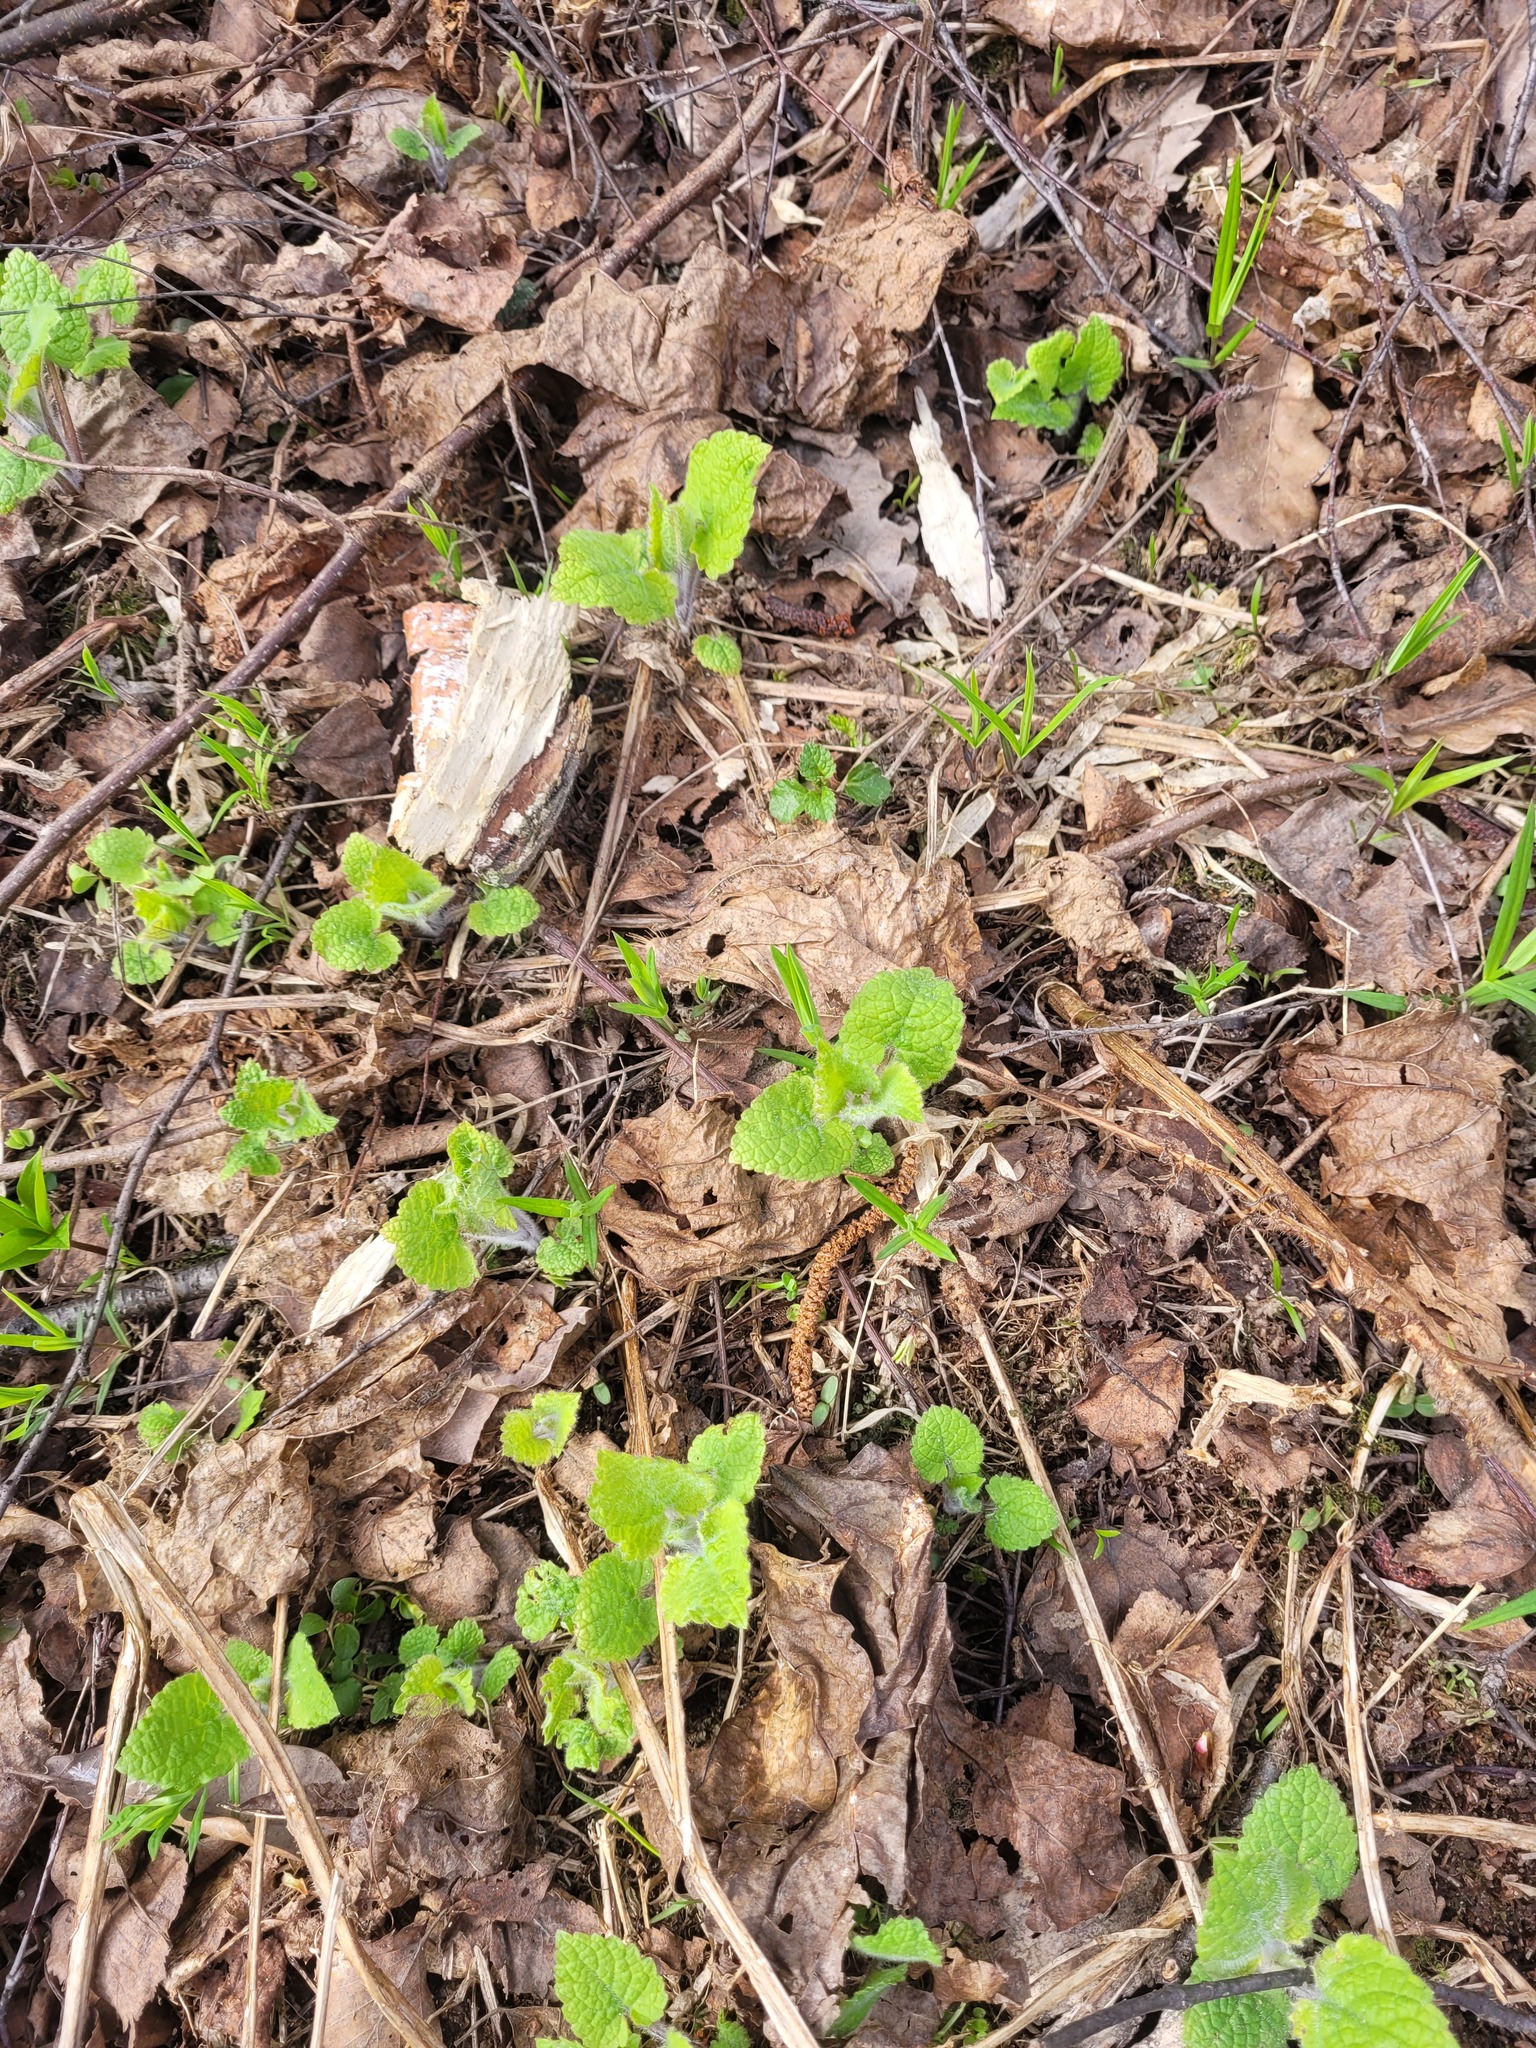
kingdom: Plantae
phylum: Tracheophyta
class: Magnoliopsida
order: Lamiales
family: Lamiaceae
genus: Stachys
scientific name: Stachys sylvatica
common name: Hedge woundwort
